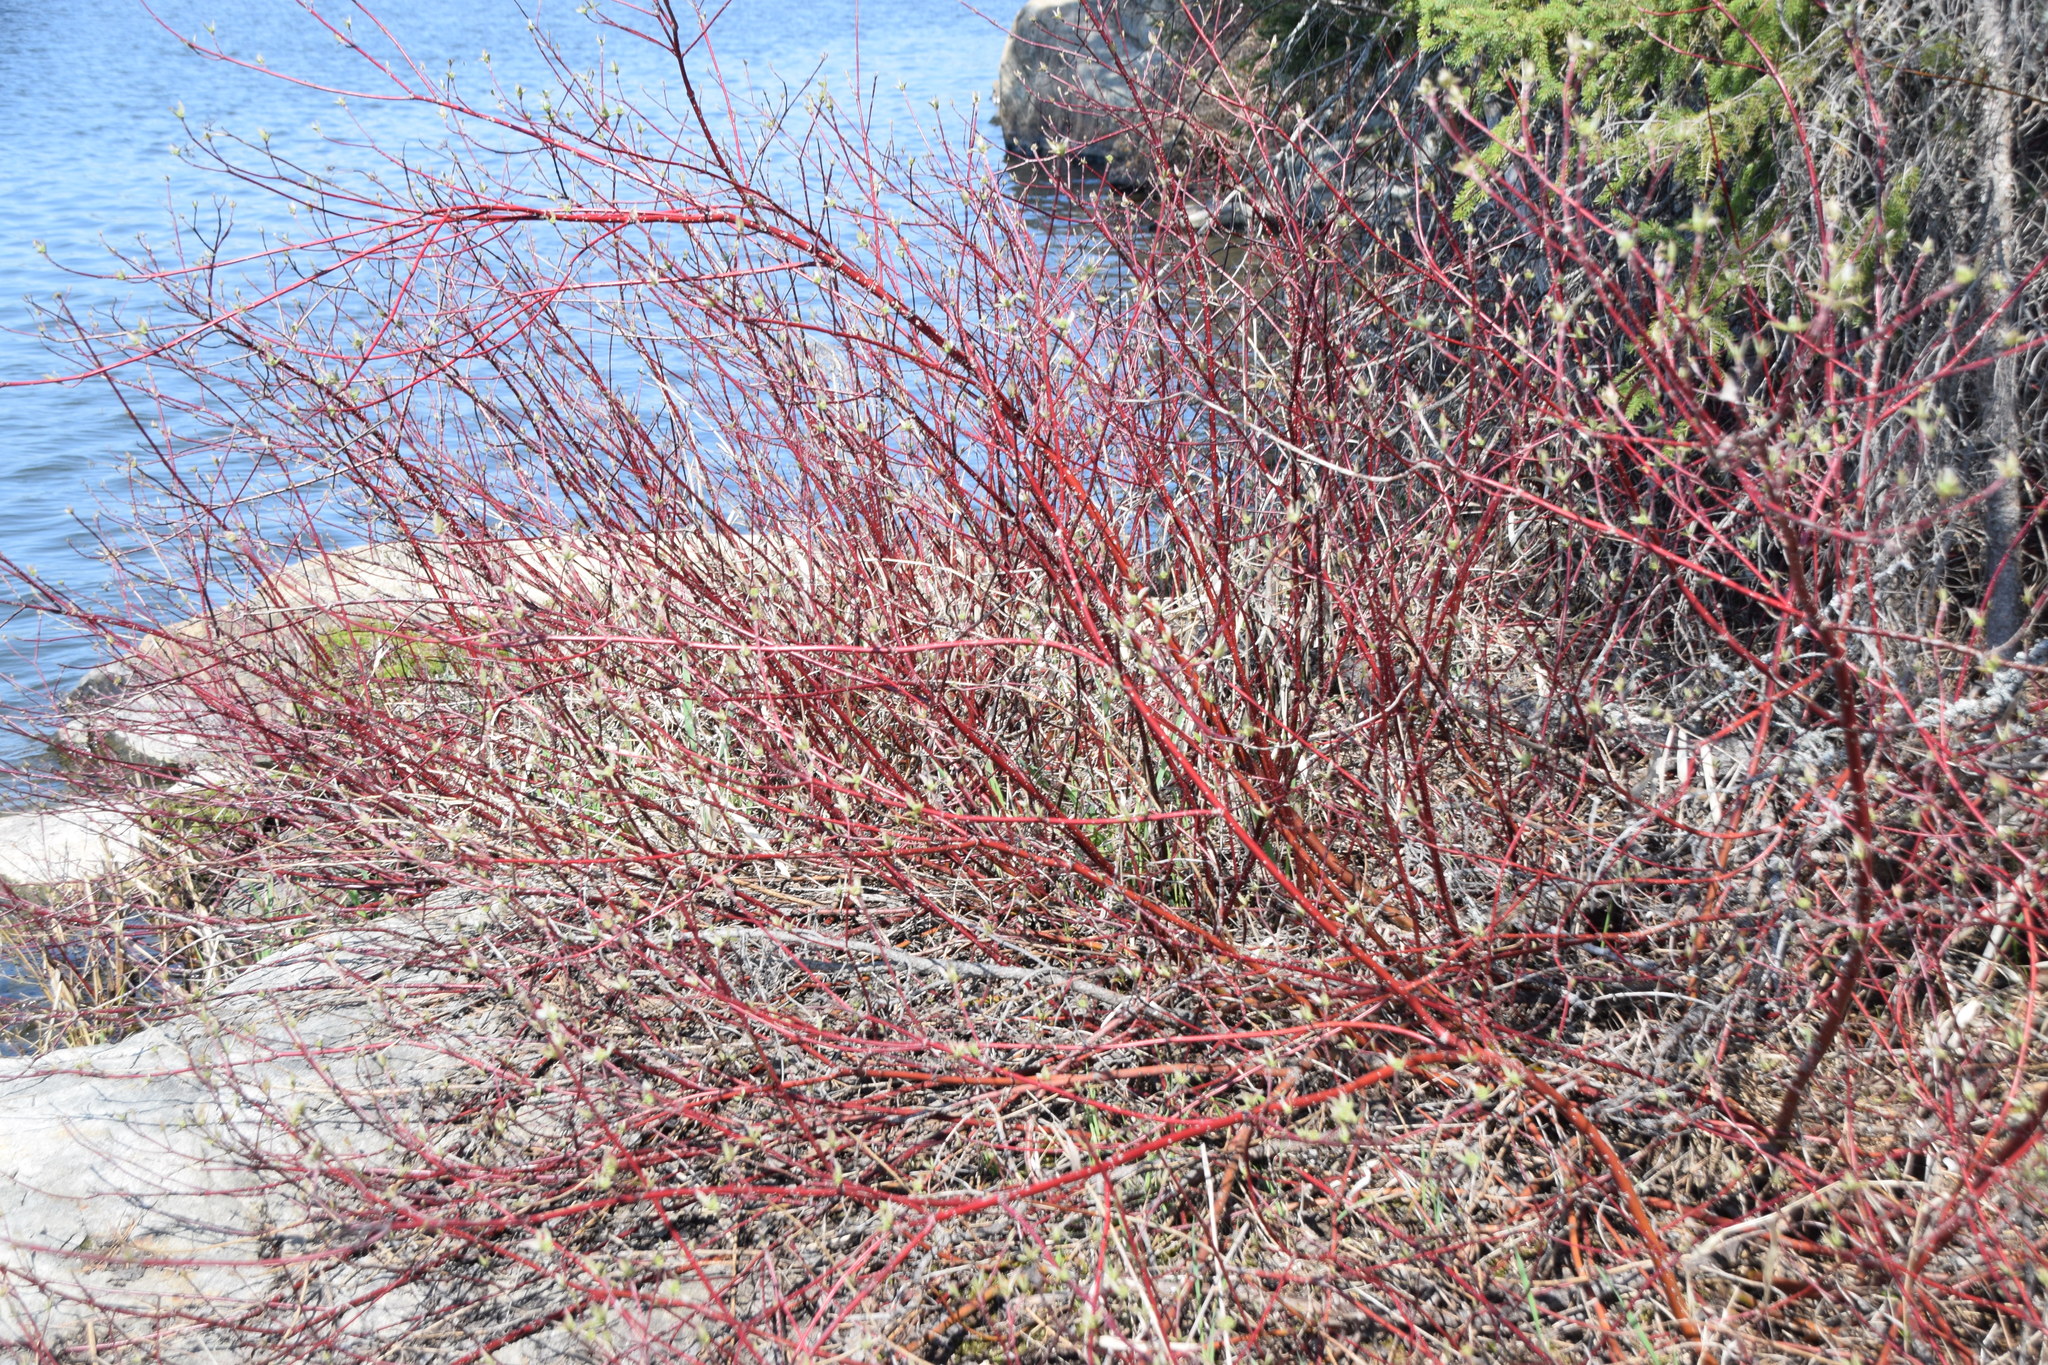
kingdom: Plantae
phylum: Tracheophyta
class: Magnoliopsida
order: Cornales
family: Cornaceae
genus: Cornus
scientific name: Cornus sericea
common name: Red-osier dogwood
